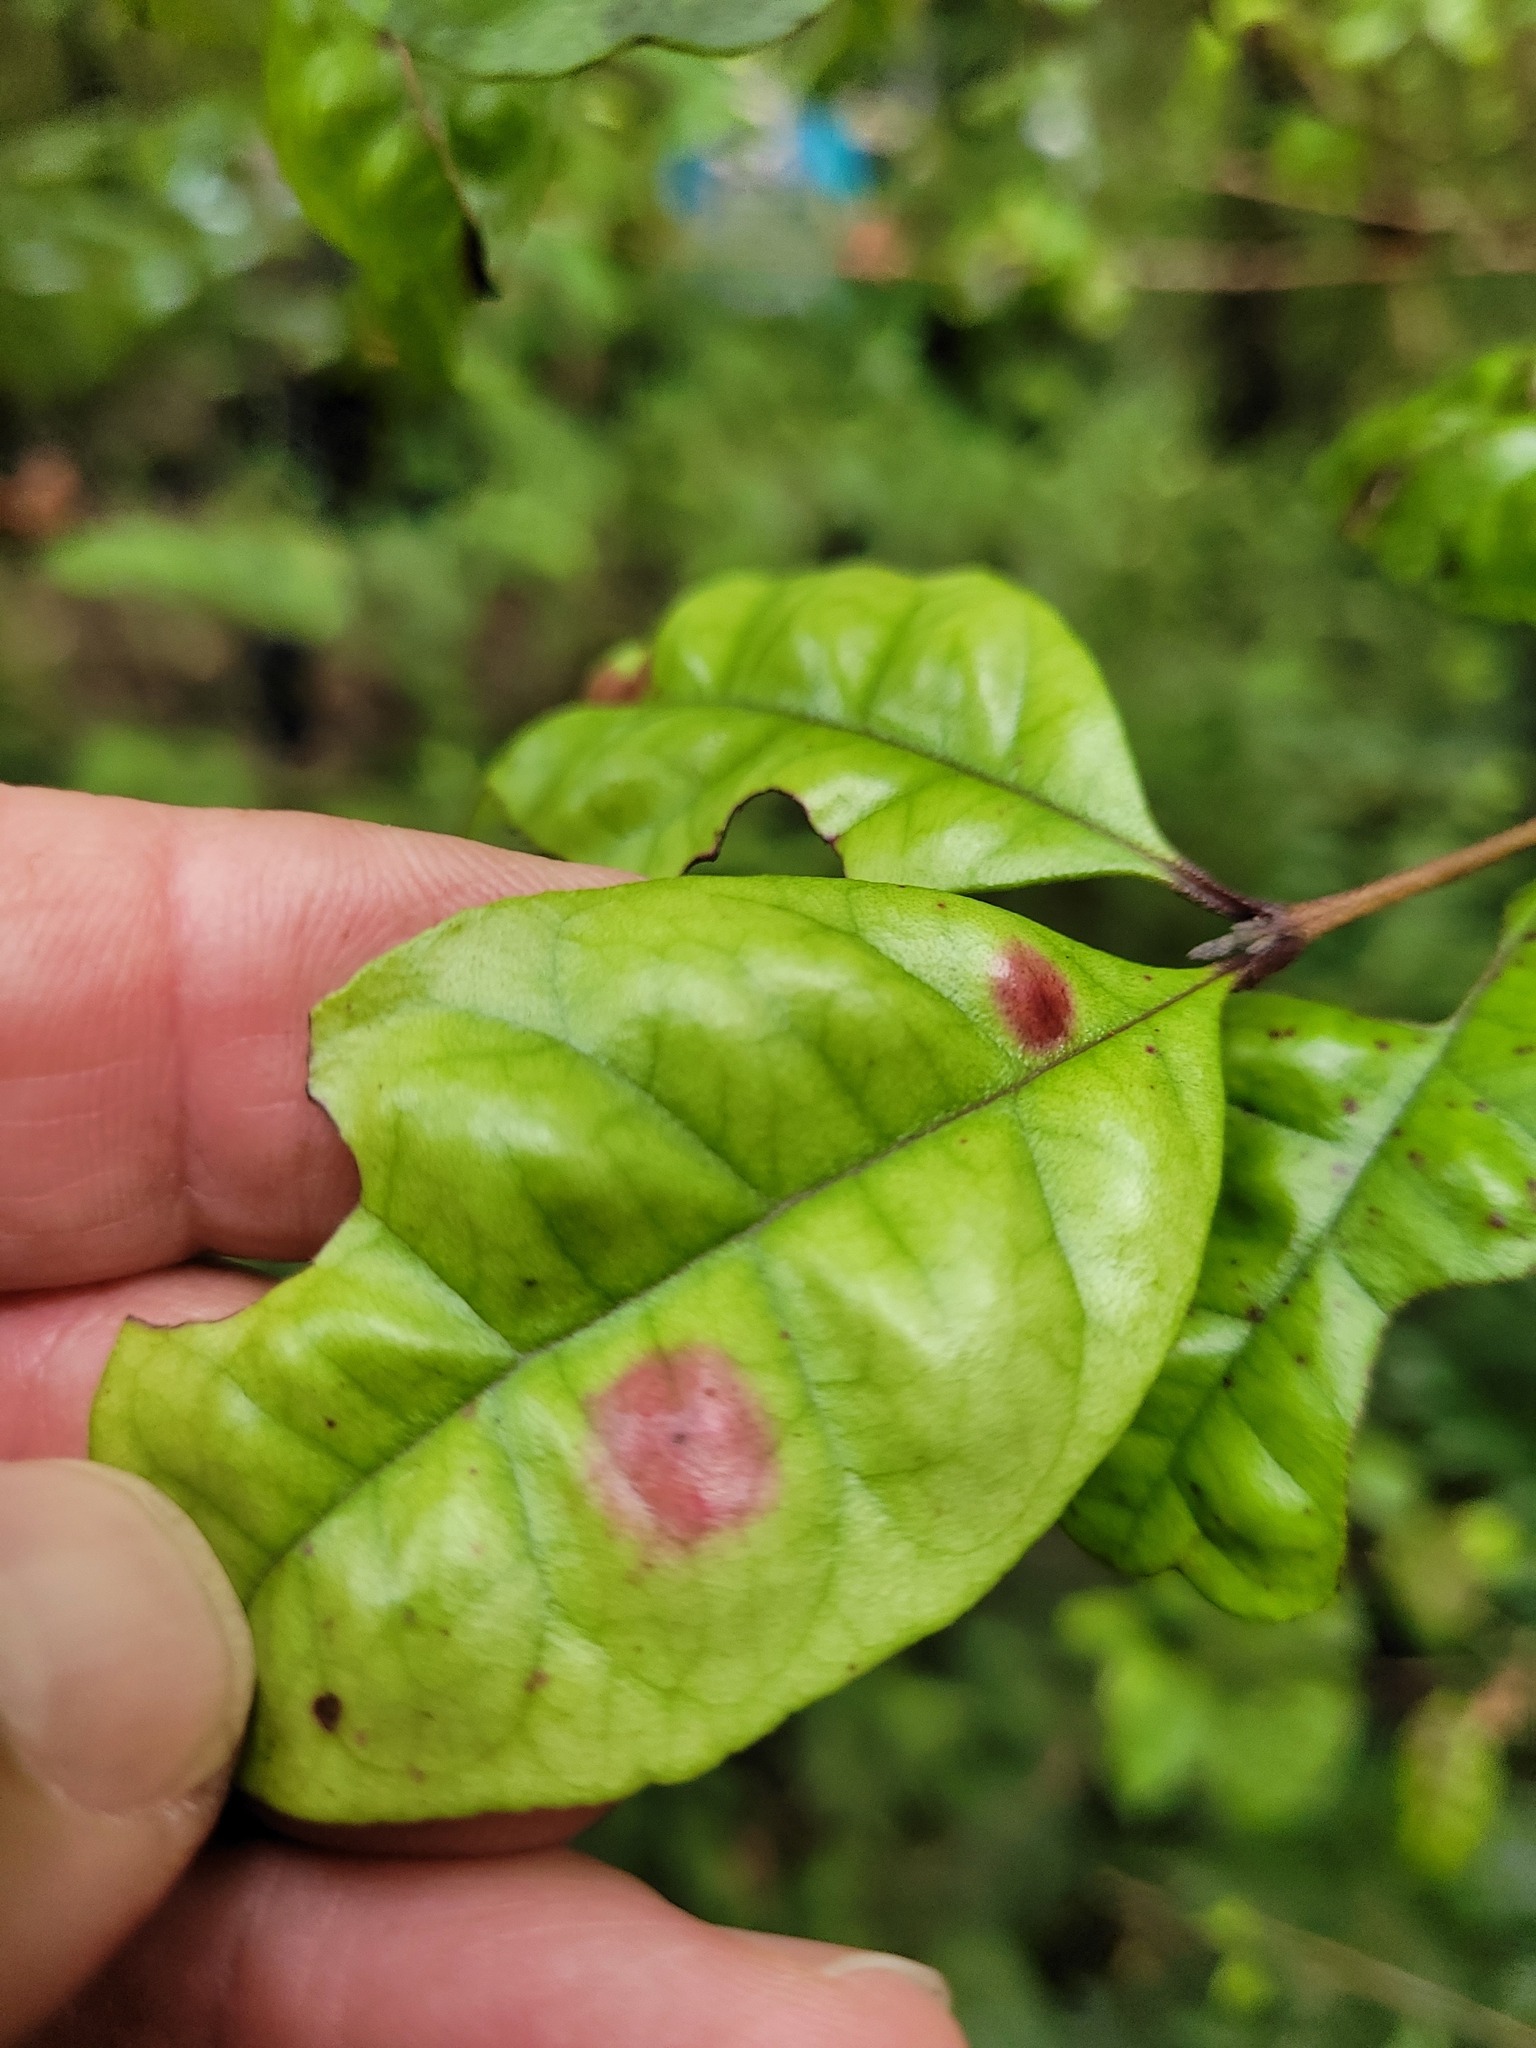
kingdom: Plantae
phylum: Tracheophyta
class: Magnoliopsida
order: Myrtales
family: Myrtaceae
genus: Lophomyrtus
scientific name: Lophomyrtus bullata
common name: Rama rama
